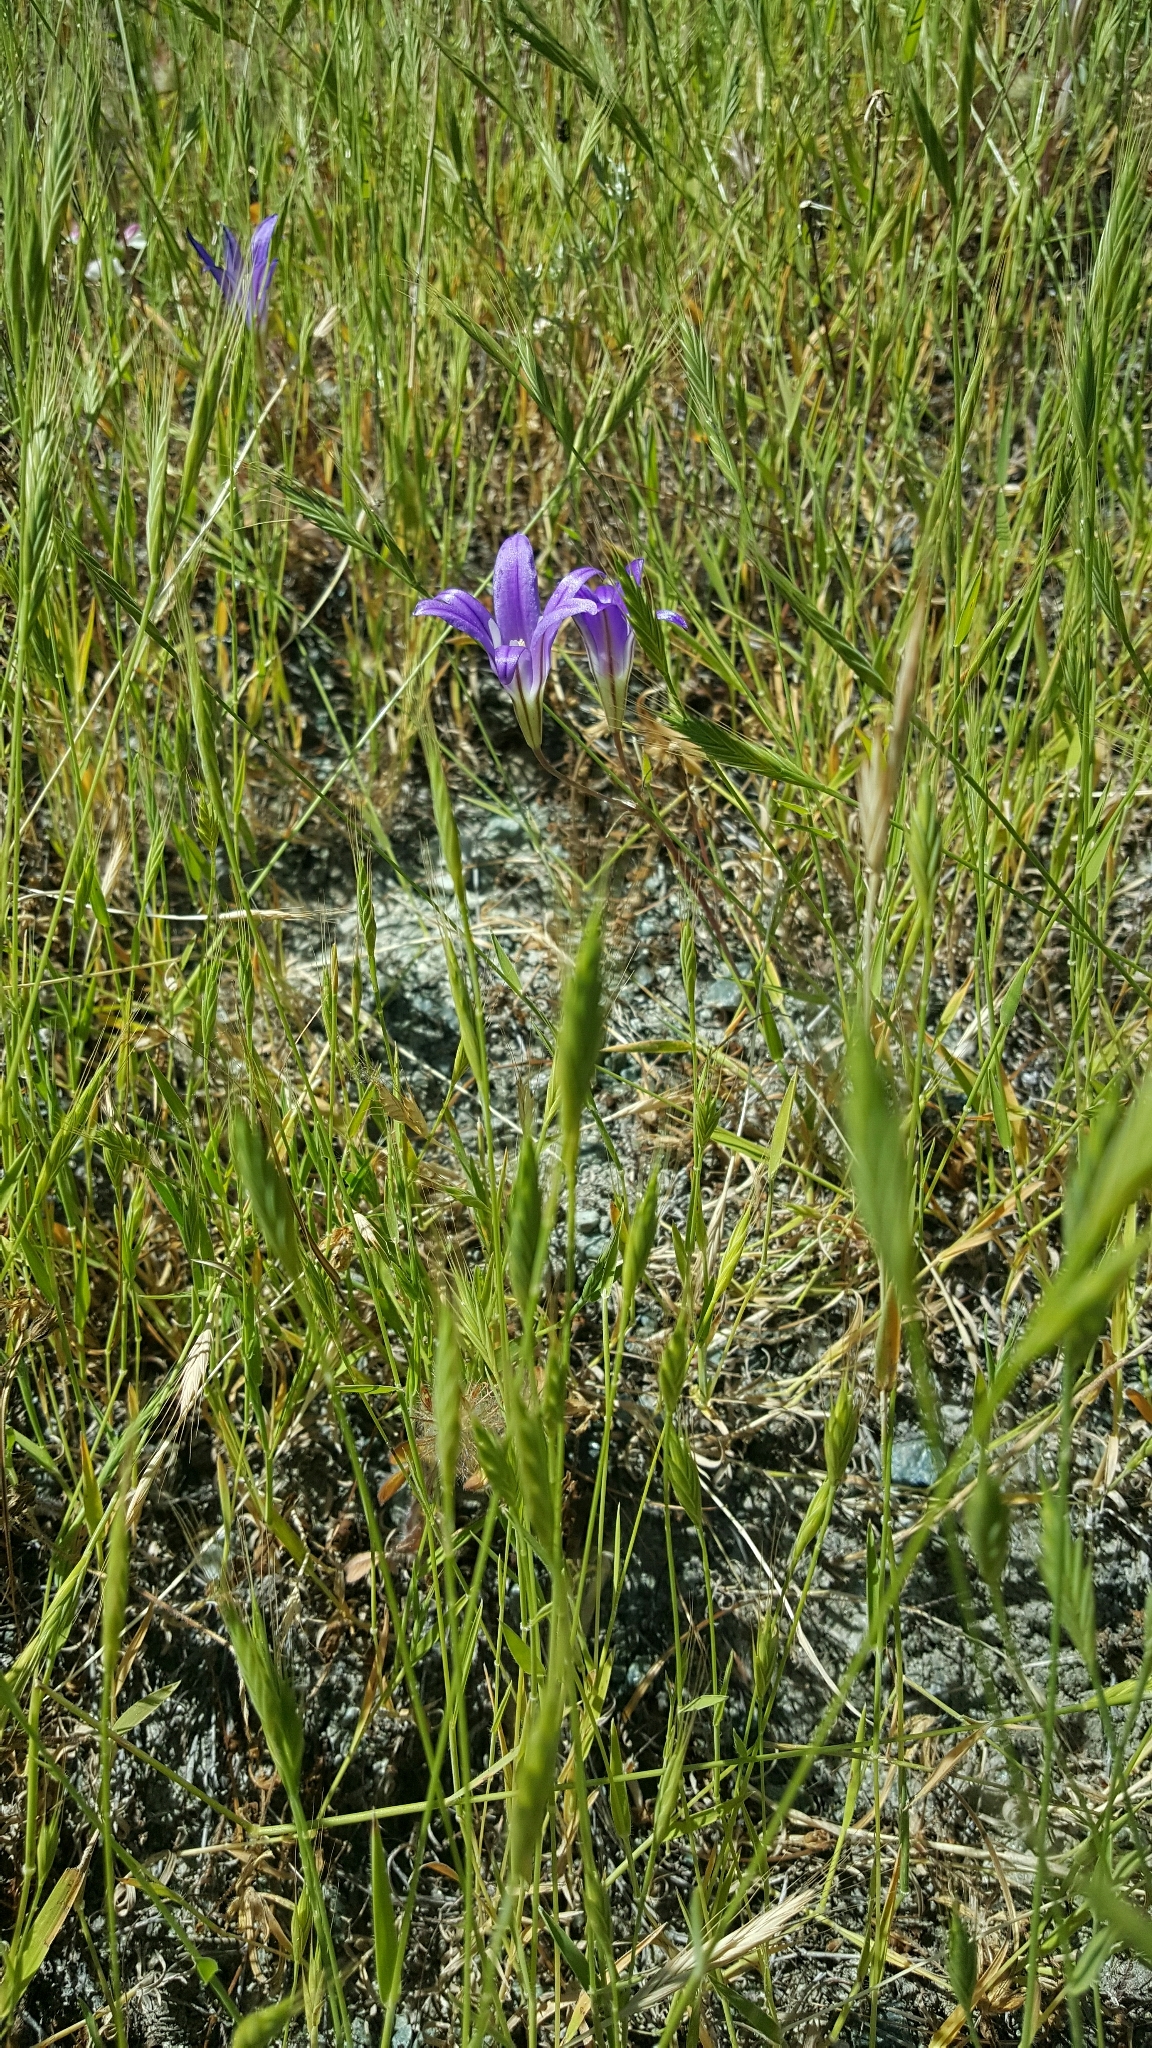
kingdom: Plantae
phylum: Tracheophyta
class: Liliopsida
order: Asparagales
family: Asparagaceae
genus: Brodiaea
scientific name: Brodiaea elegans
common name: Elegant cluster-lily
